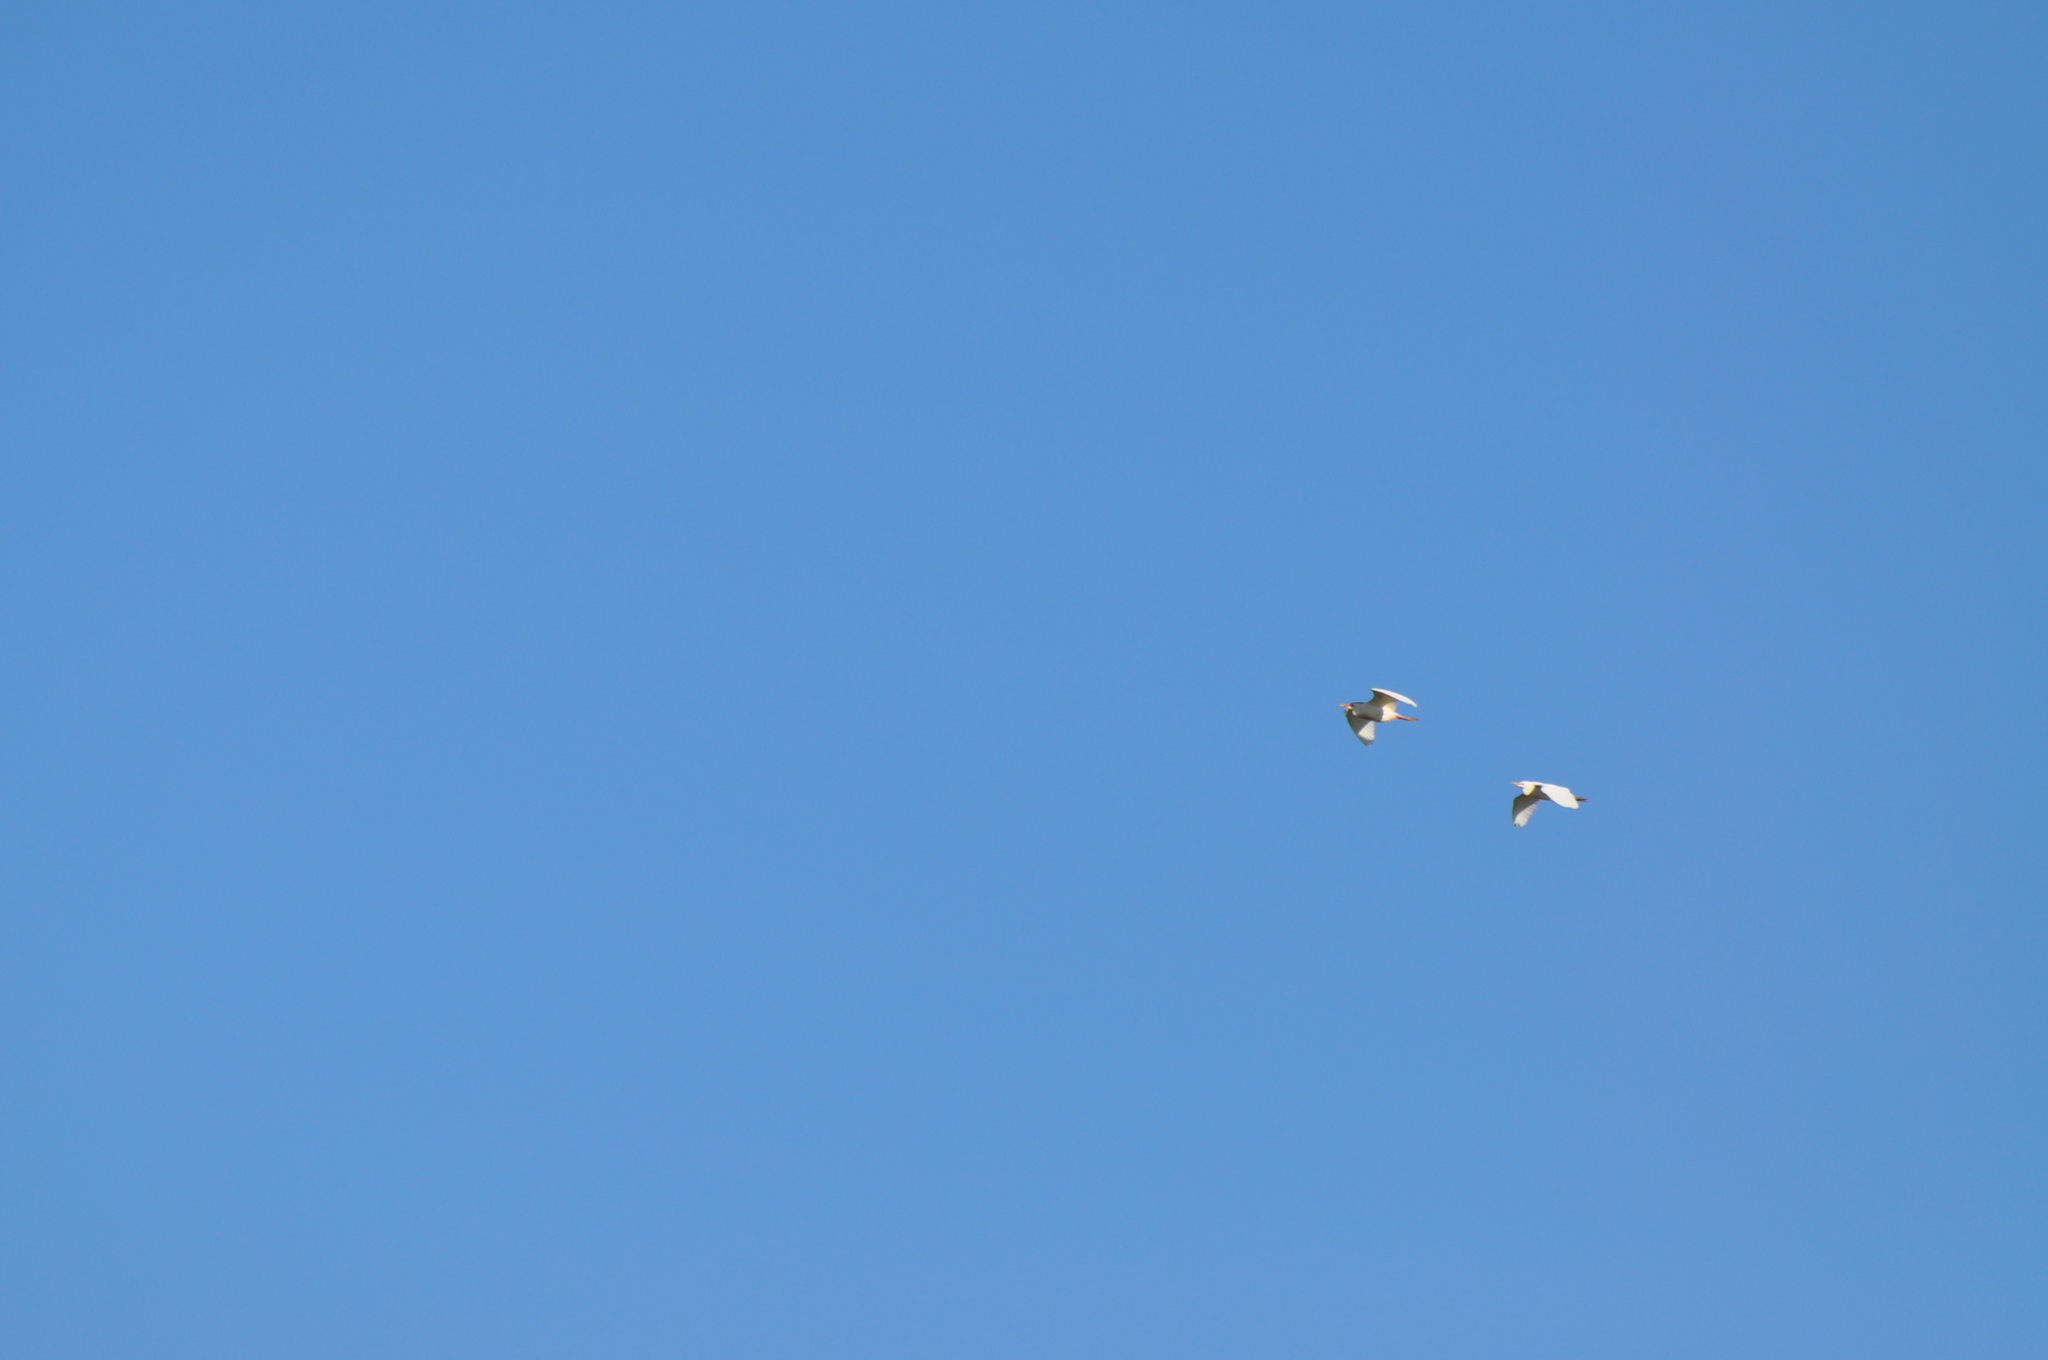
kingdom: Animalia
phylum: Chordata
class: Aves
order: Pelecaniformes
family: Ardeidae
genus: Bubulcus
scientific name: Bubulcus ibis
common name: Cattle egret
